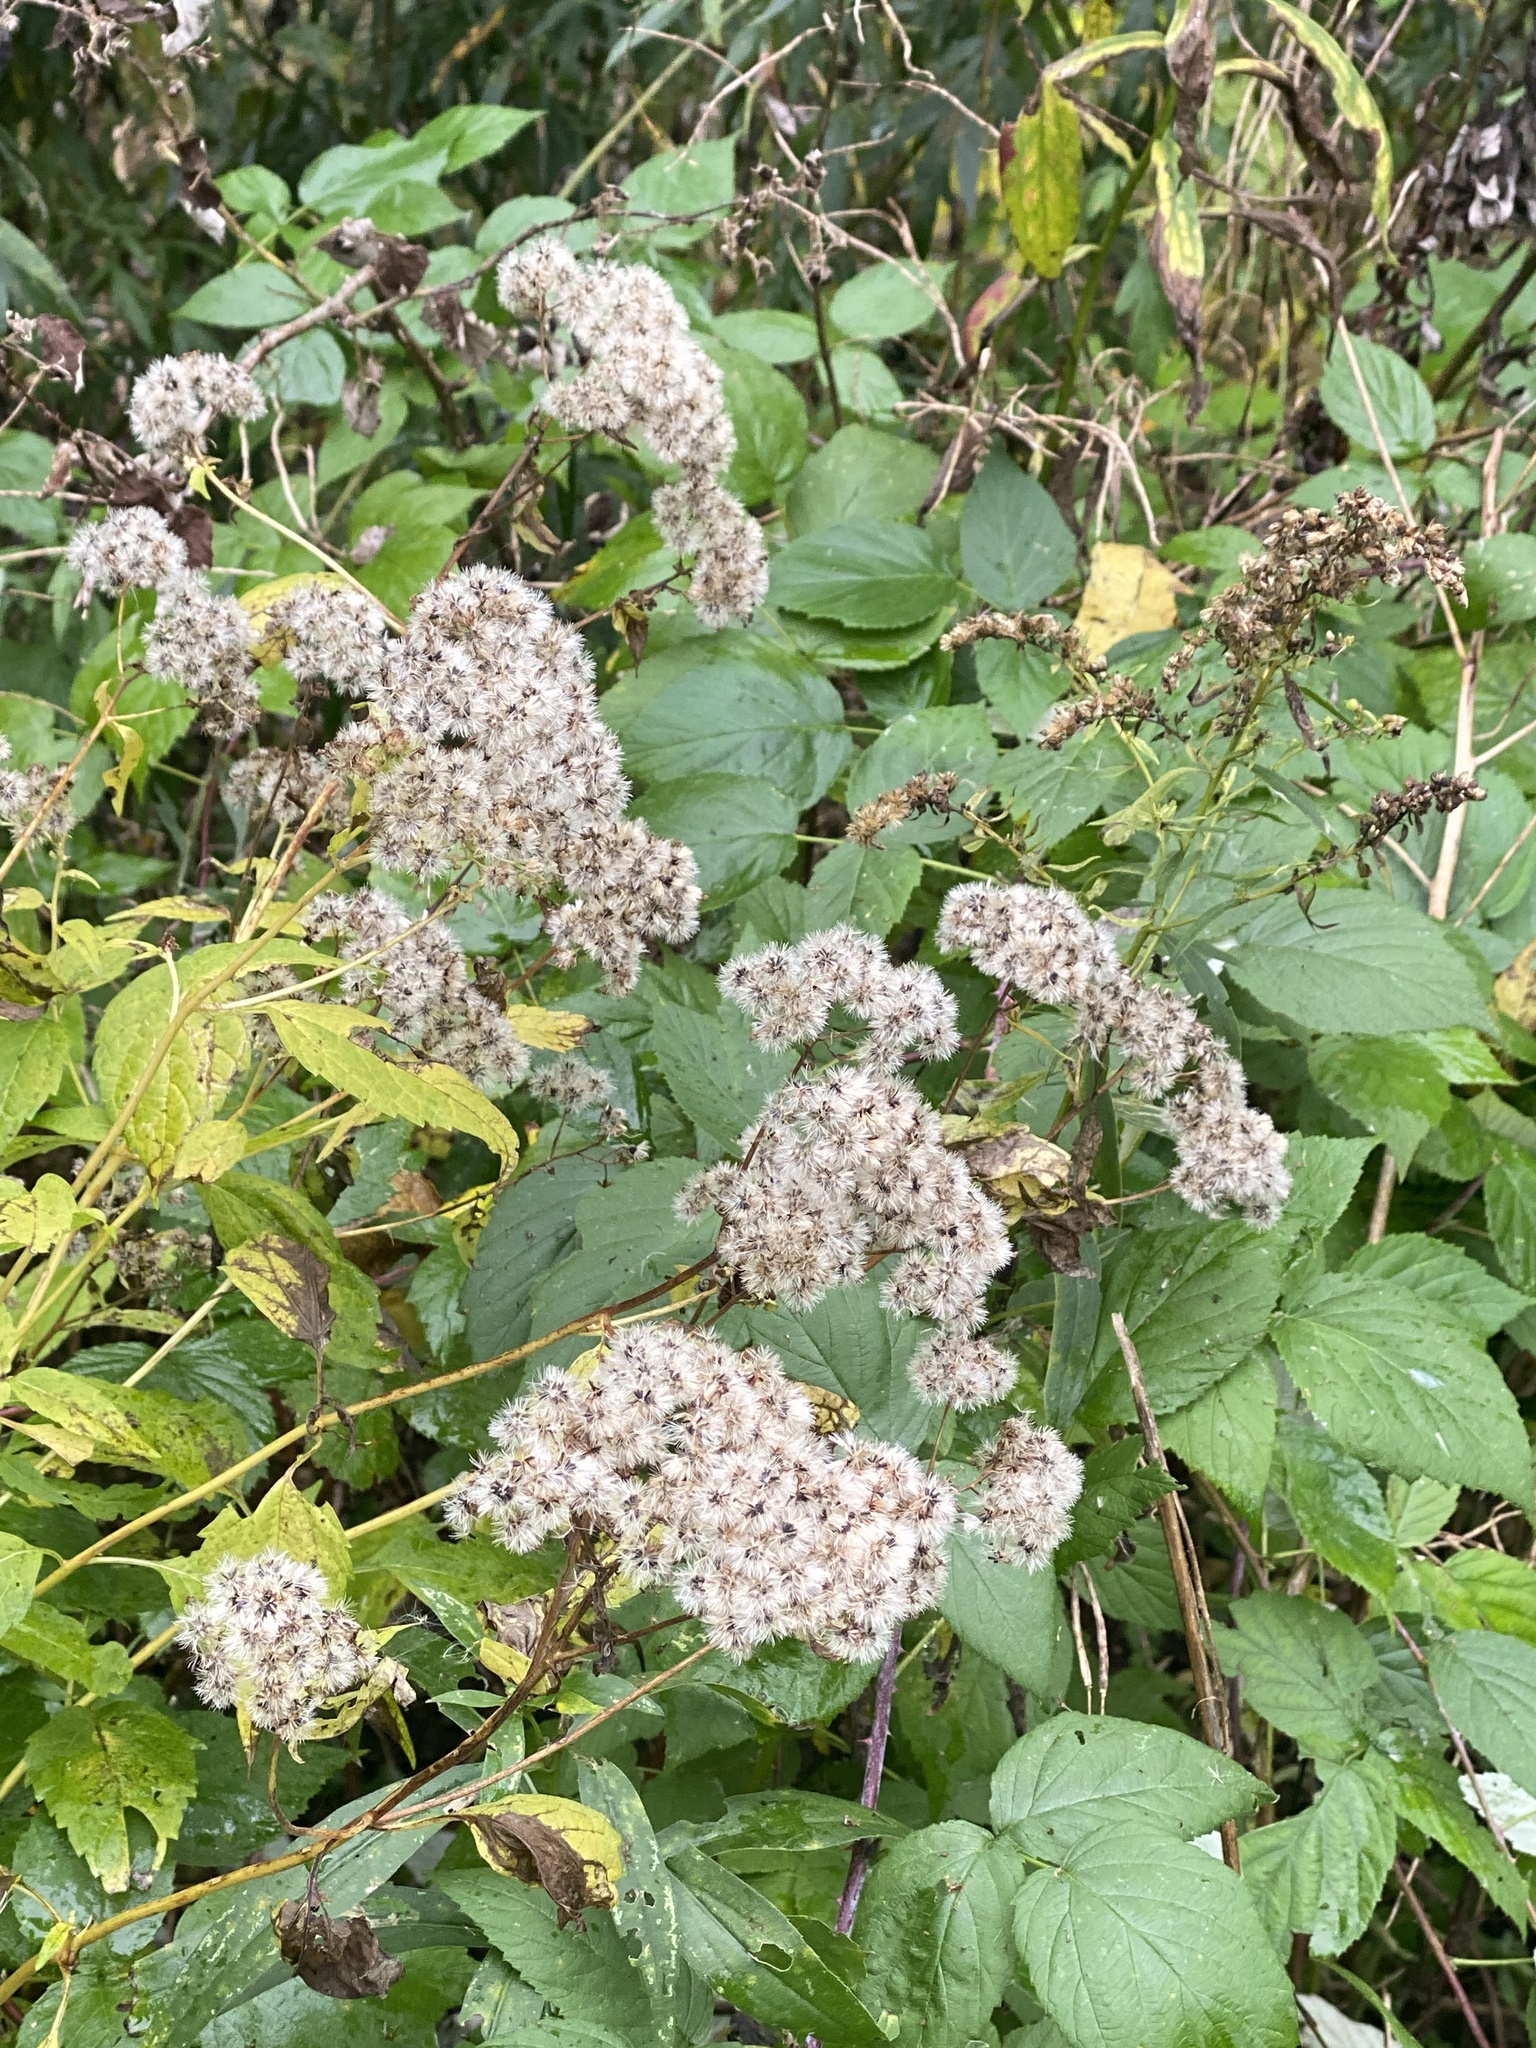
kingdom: Plantae
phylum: Tracheophyta
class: Magnoliopsida
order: Asterales
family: Asteraceae
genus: Ageratina
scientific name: Ageratina altissima
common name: White snakeroot
